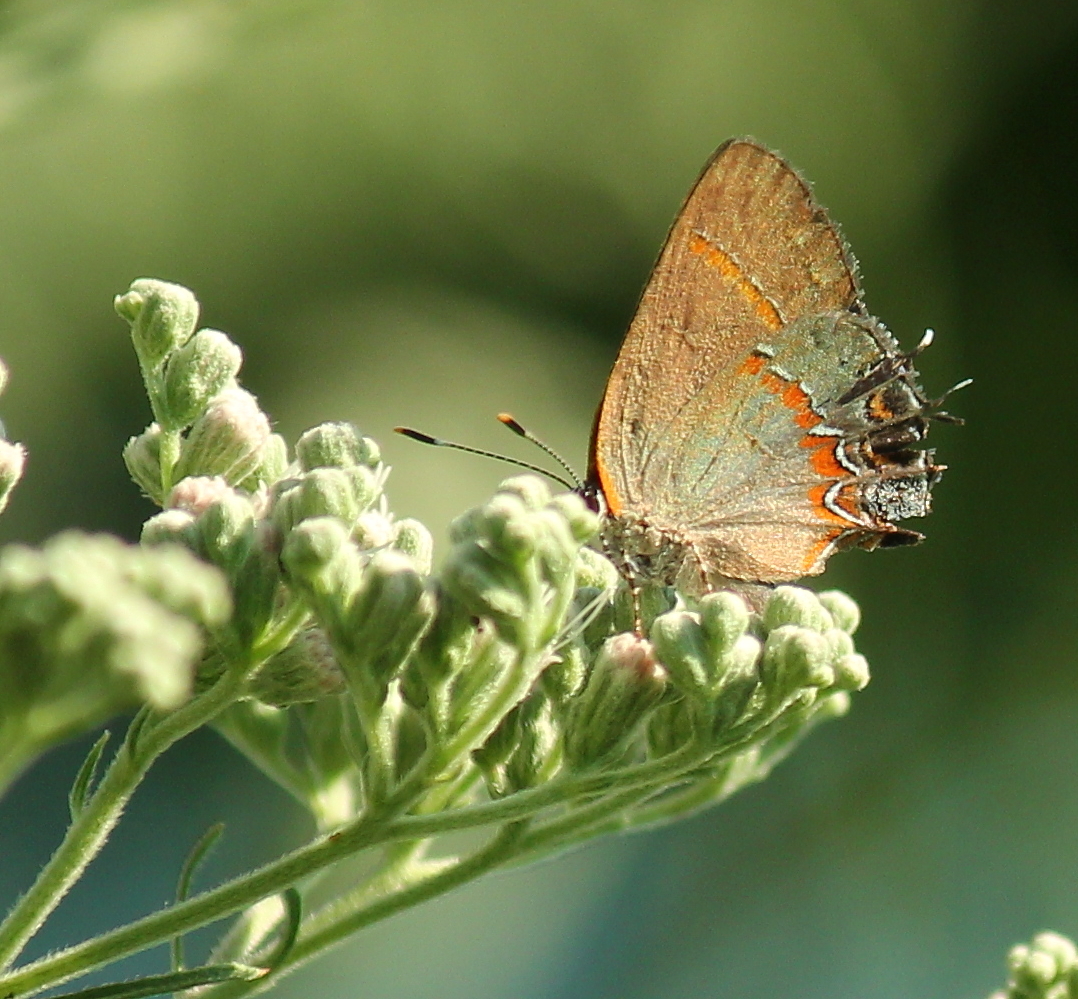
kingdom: Animalia
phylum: Arthropoda
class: Insecta
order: Lepidoptera
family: Lycaenidae
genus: Calycopis
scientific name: Calycopis cecrops
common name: Red-banded hairstreak
